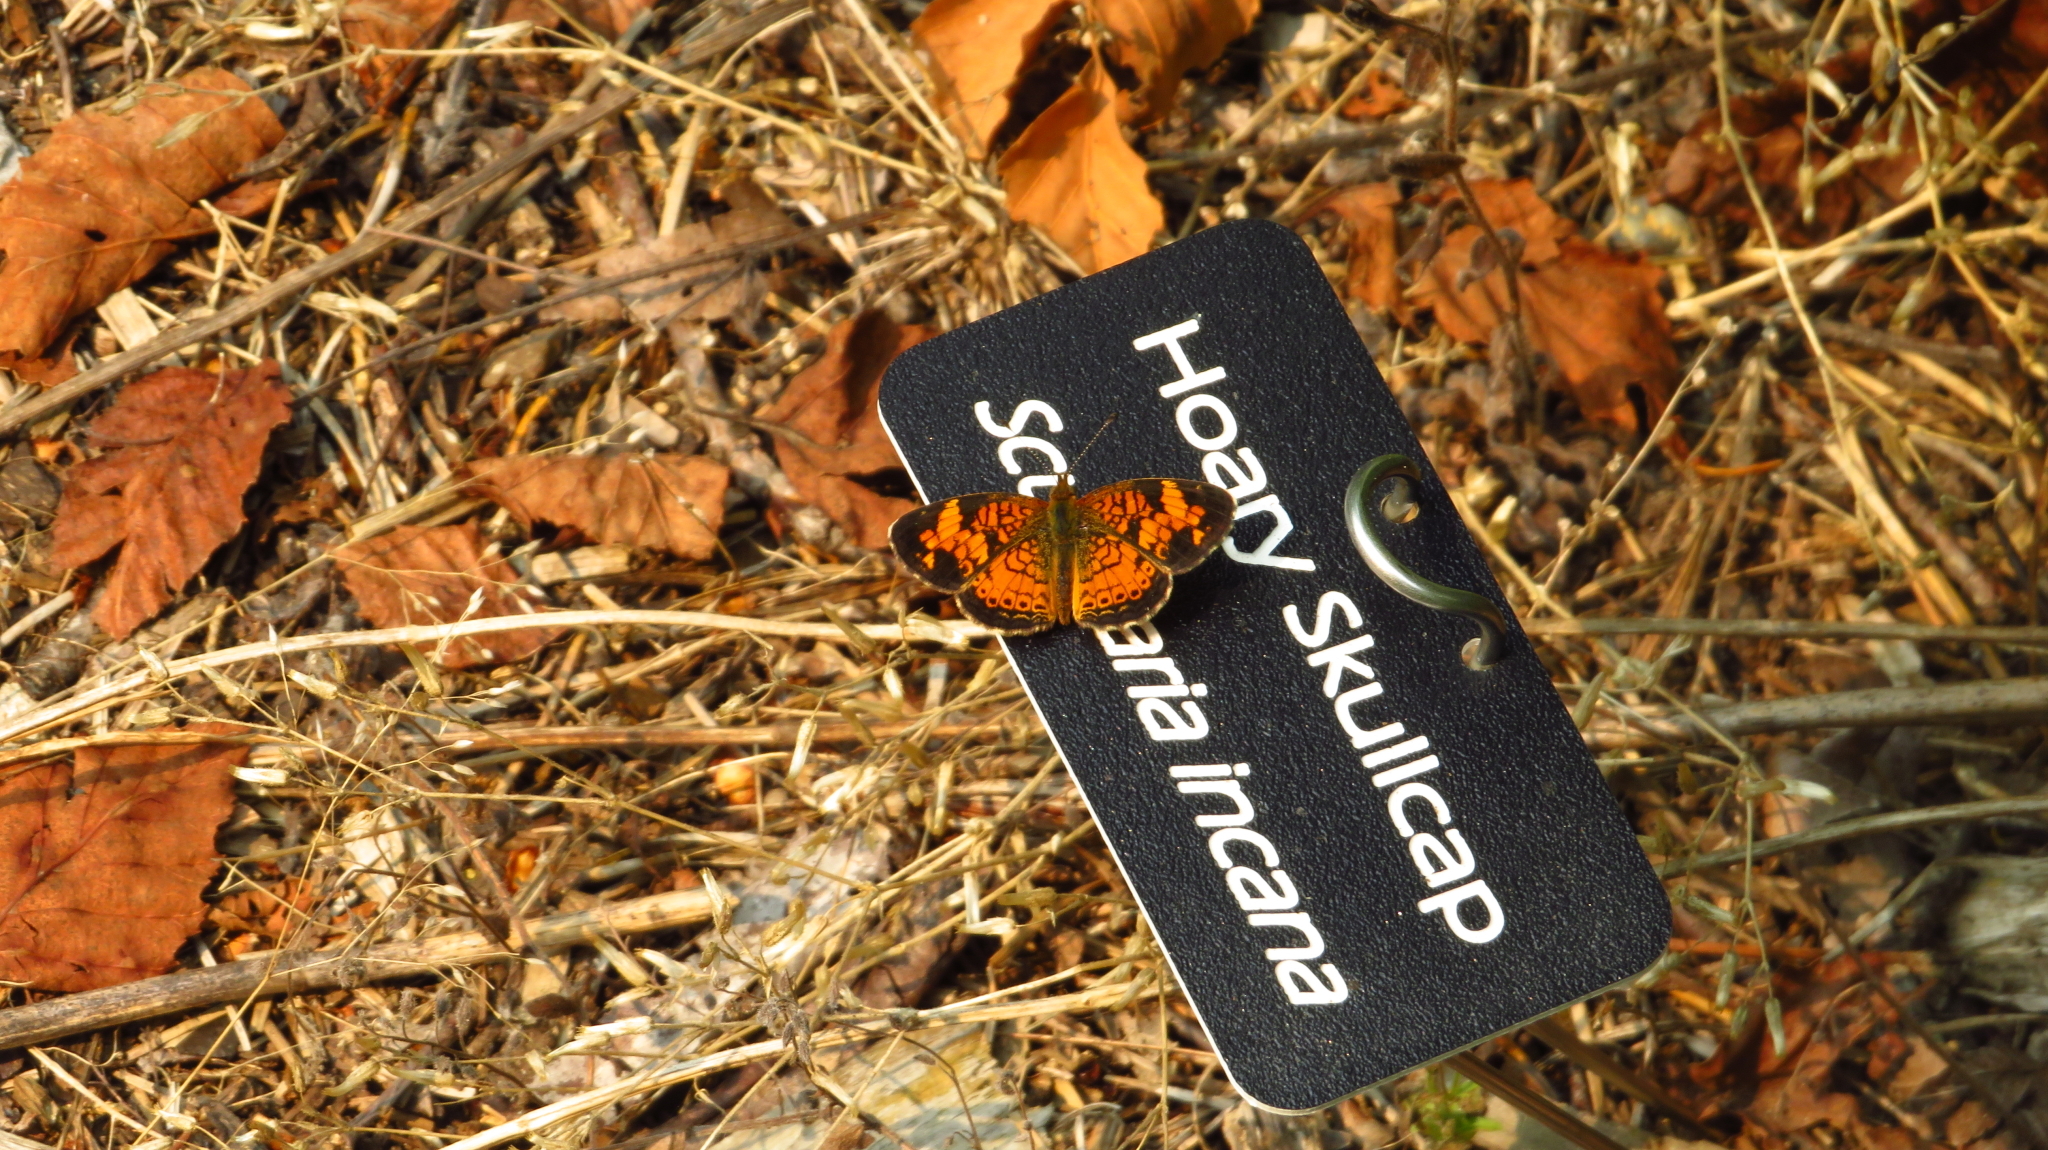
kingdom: Animalia
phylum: Arthropoda
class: Insecta
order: Lepidoptera
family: Nymphalidae
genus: Phyciodes
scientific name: Phyciodes tharos
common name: Pearl crescent
